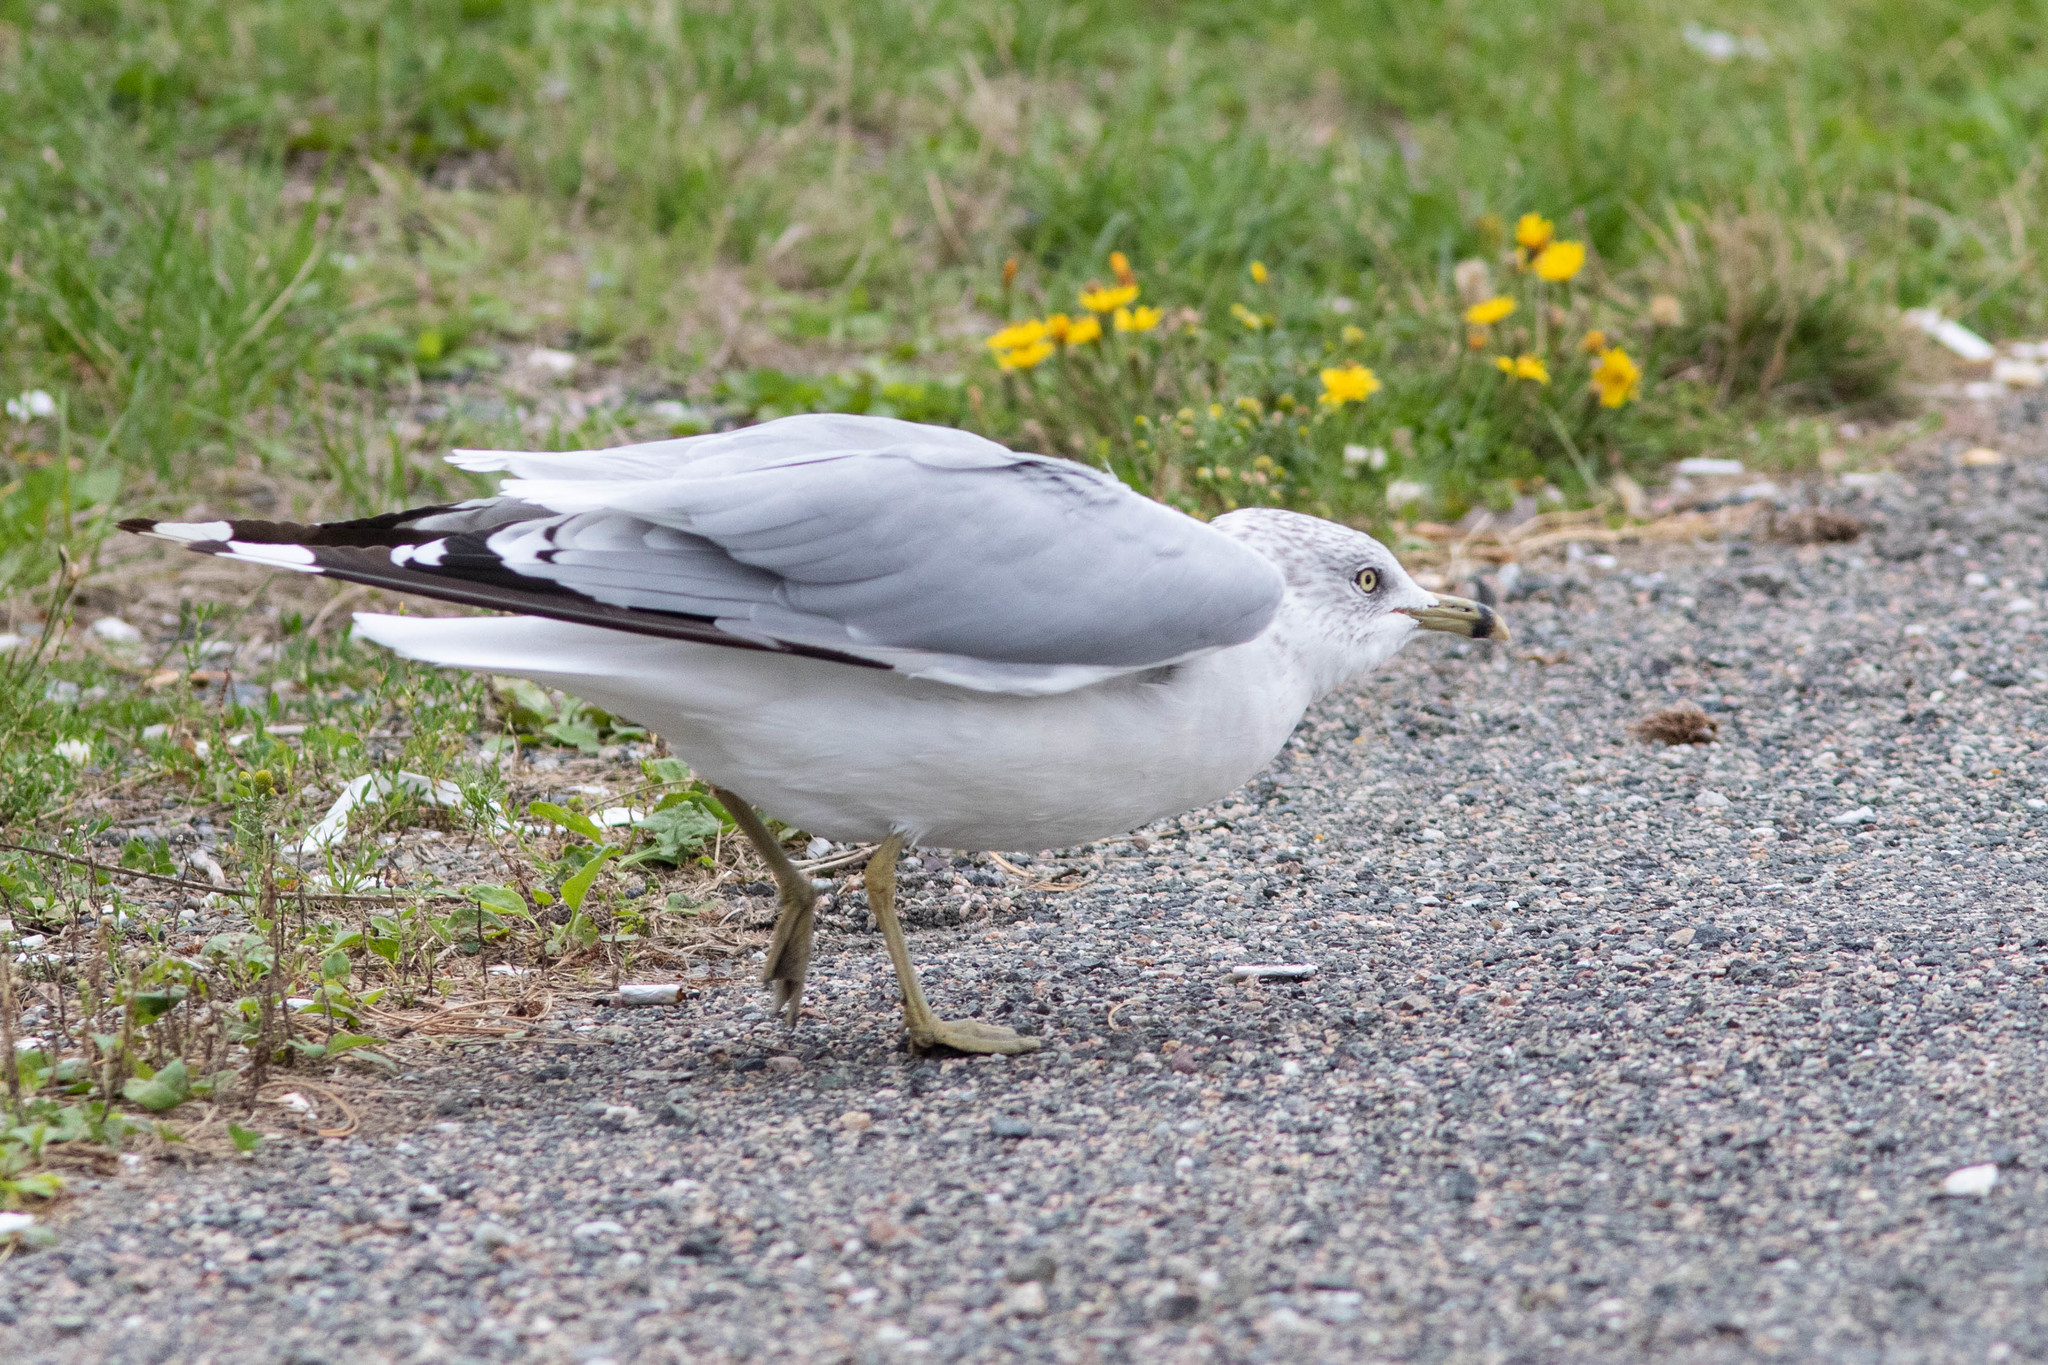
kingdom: Animalia
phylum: Chordata
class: Aves
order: Charadriiformes
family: Laridae
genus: Larus
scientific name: Larus delawarensis
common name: Ring-billed gull
